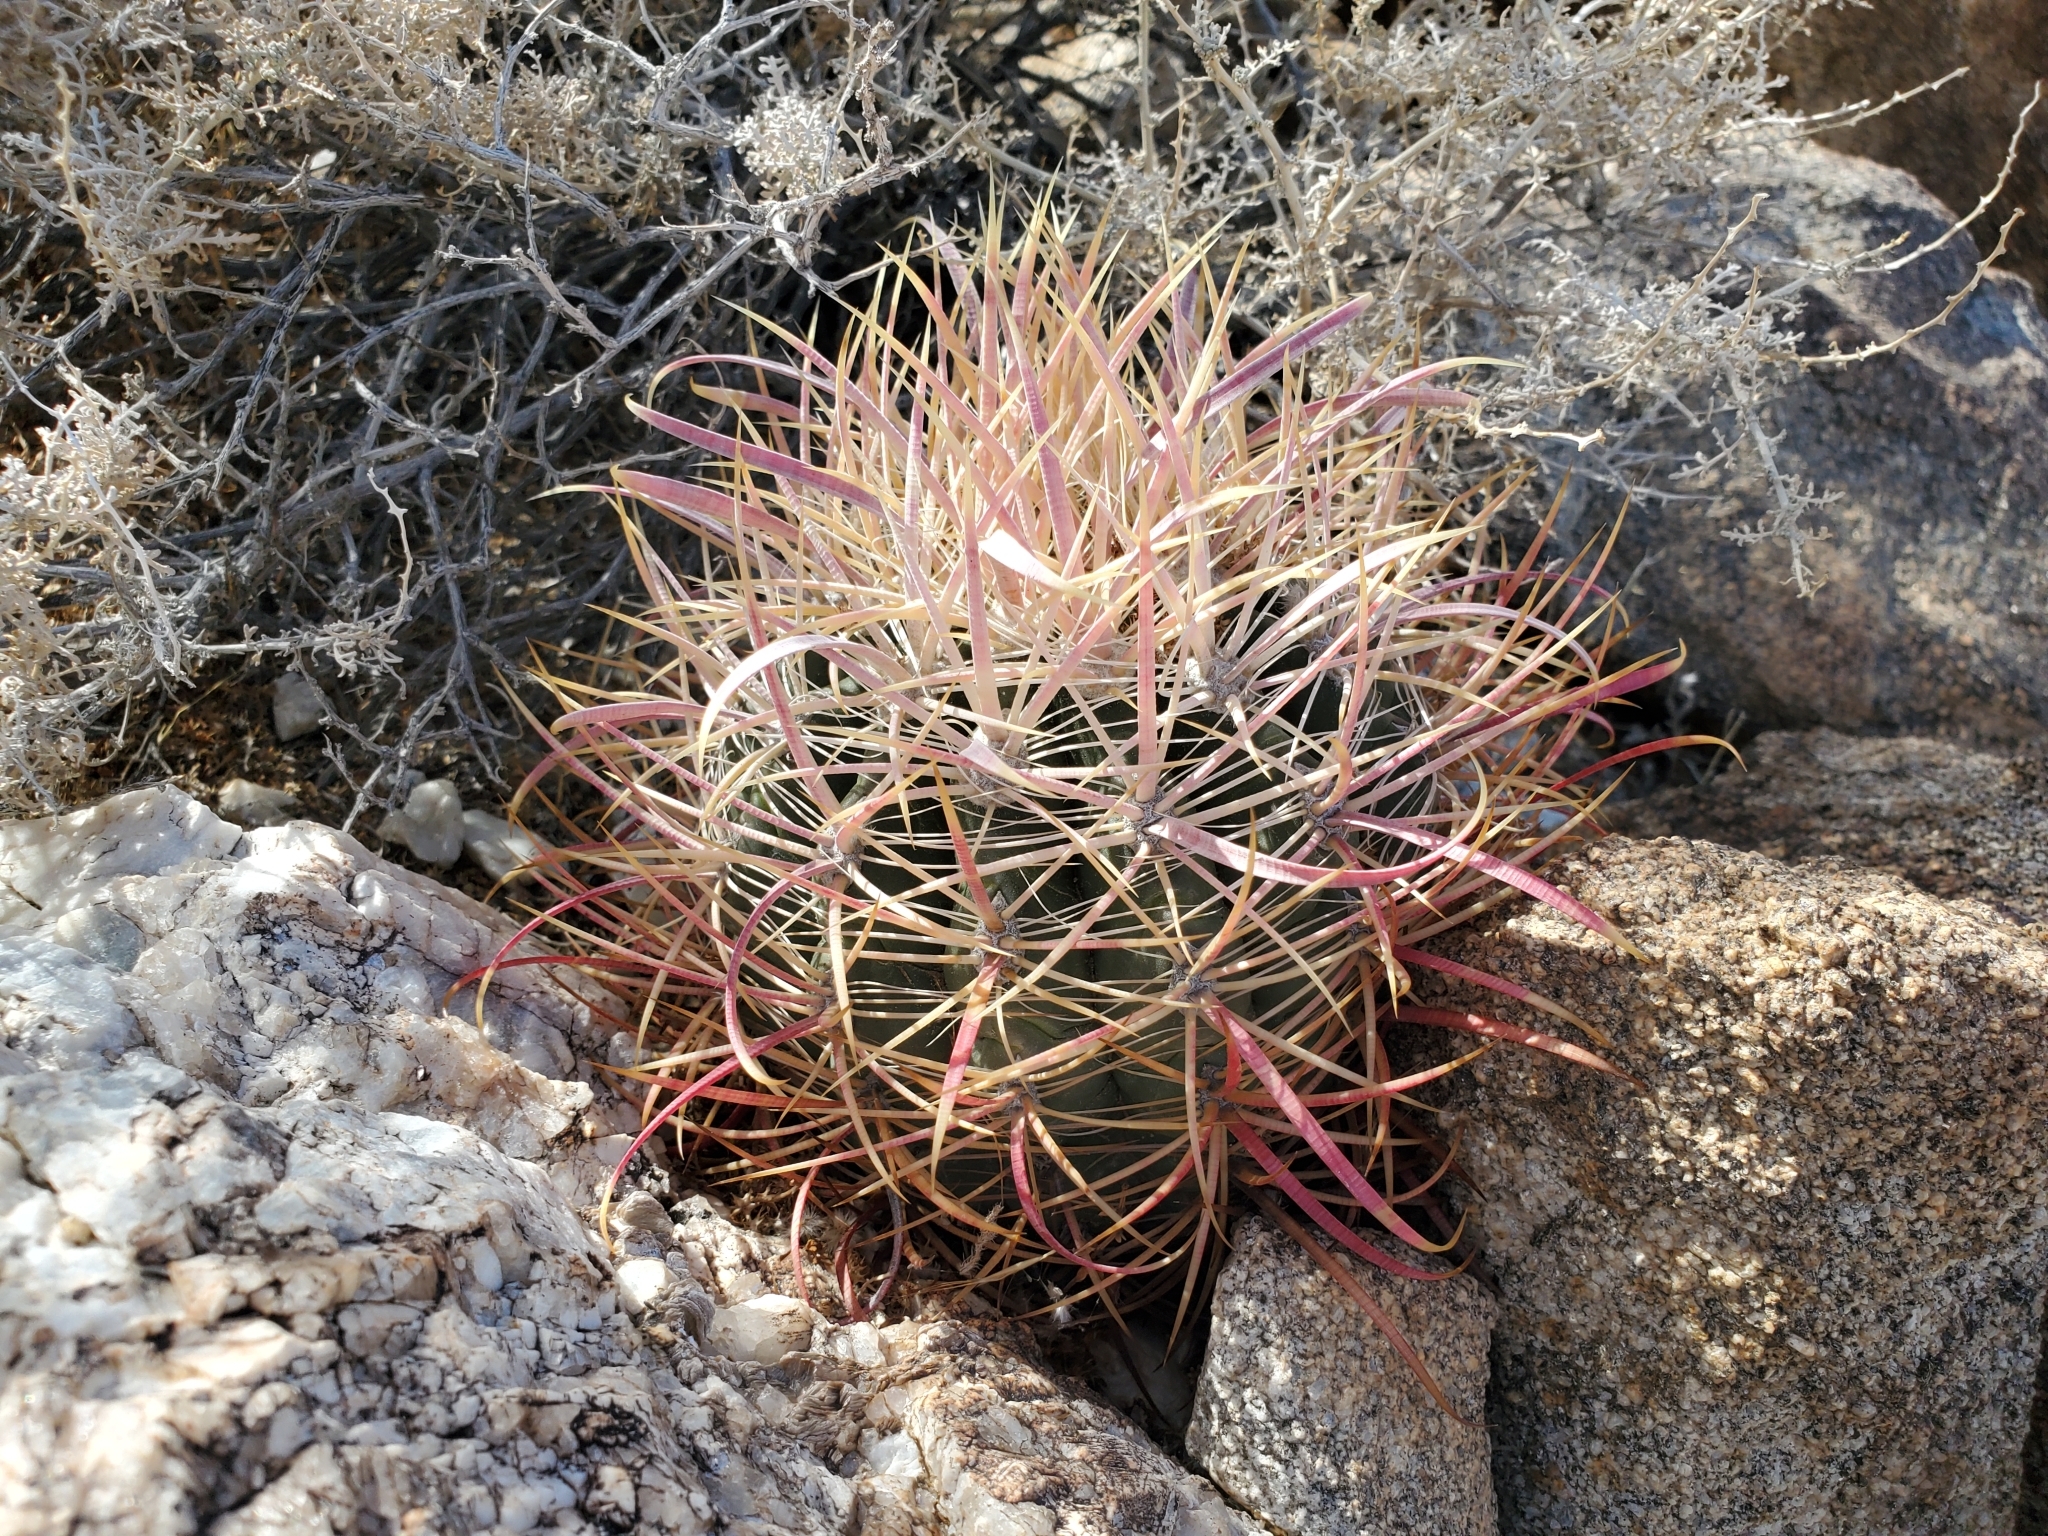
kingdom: Plantae
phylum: Tracheophyta
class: Magnoliopsida
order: Caryophyllales
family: Cactaceae
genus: Ferocactus
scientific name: Ferocactus cylindraceus
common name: California barrel cactus
